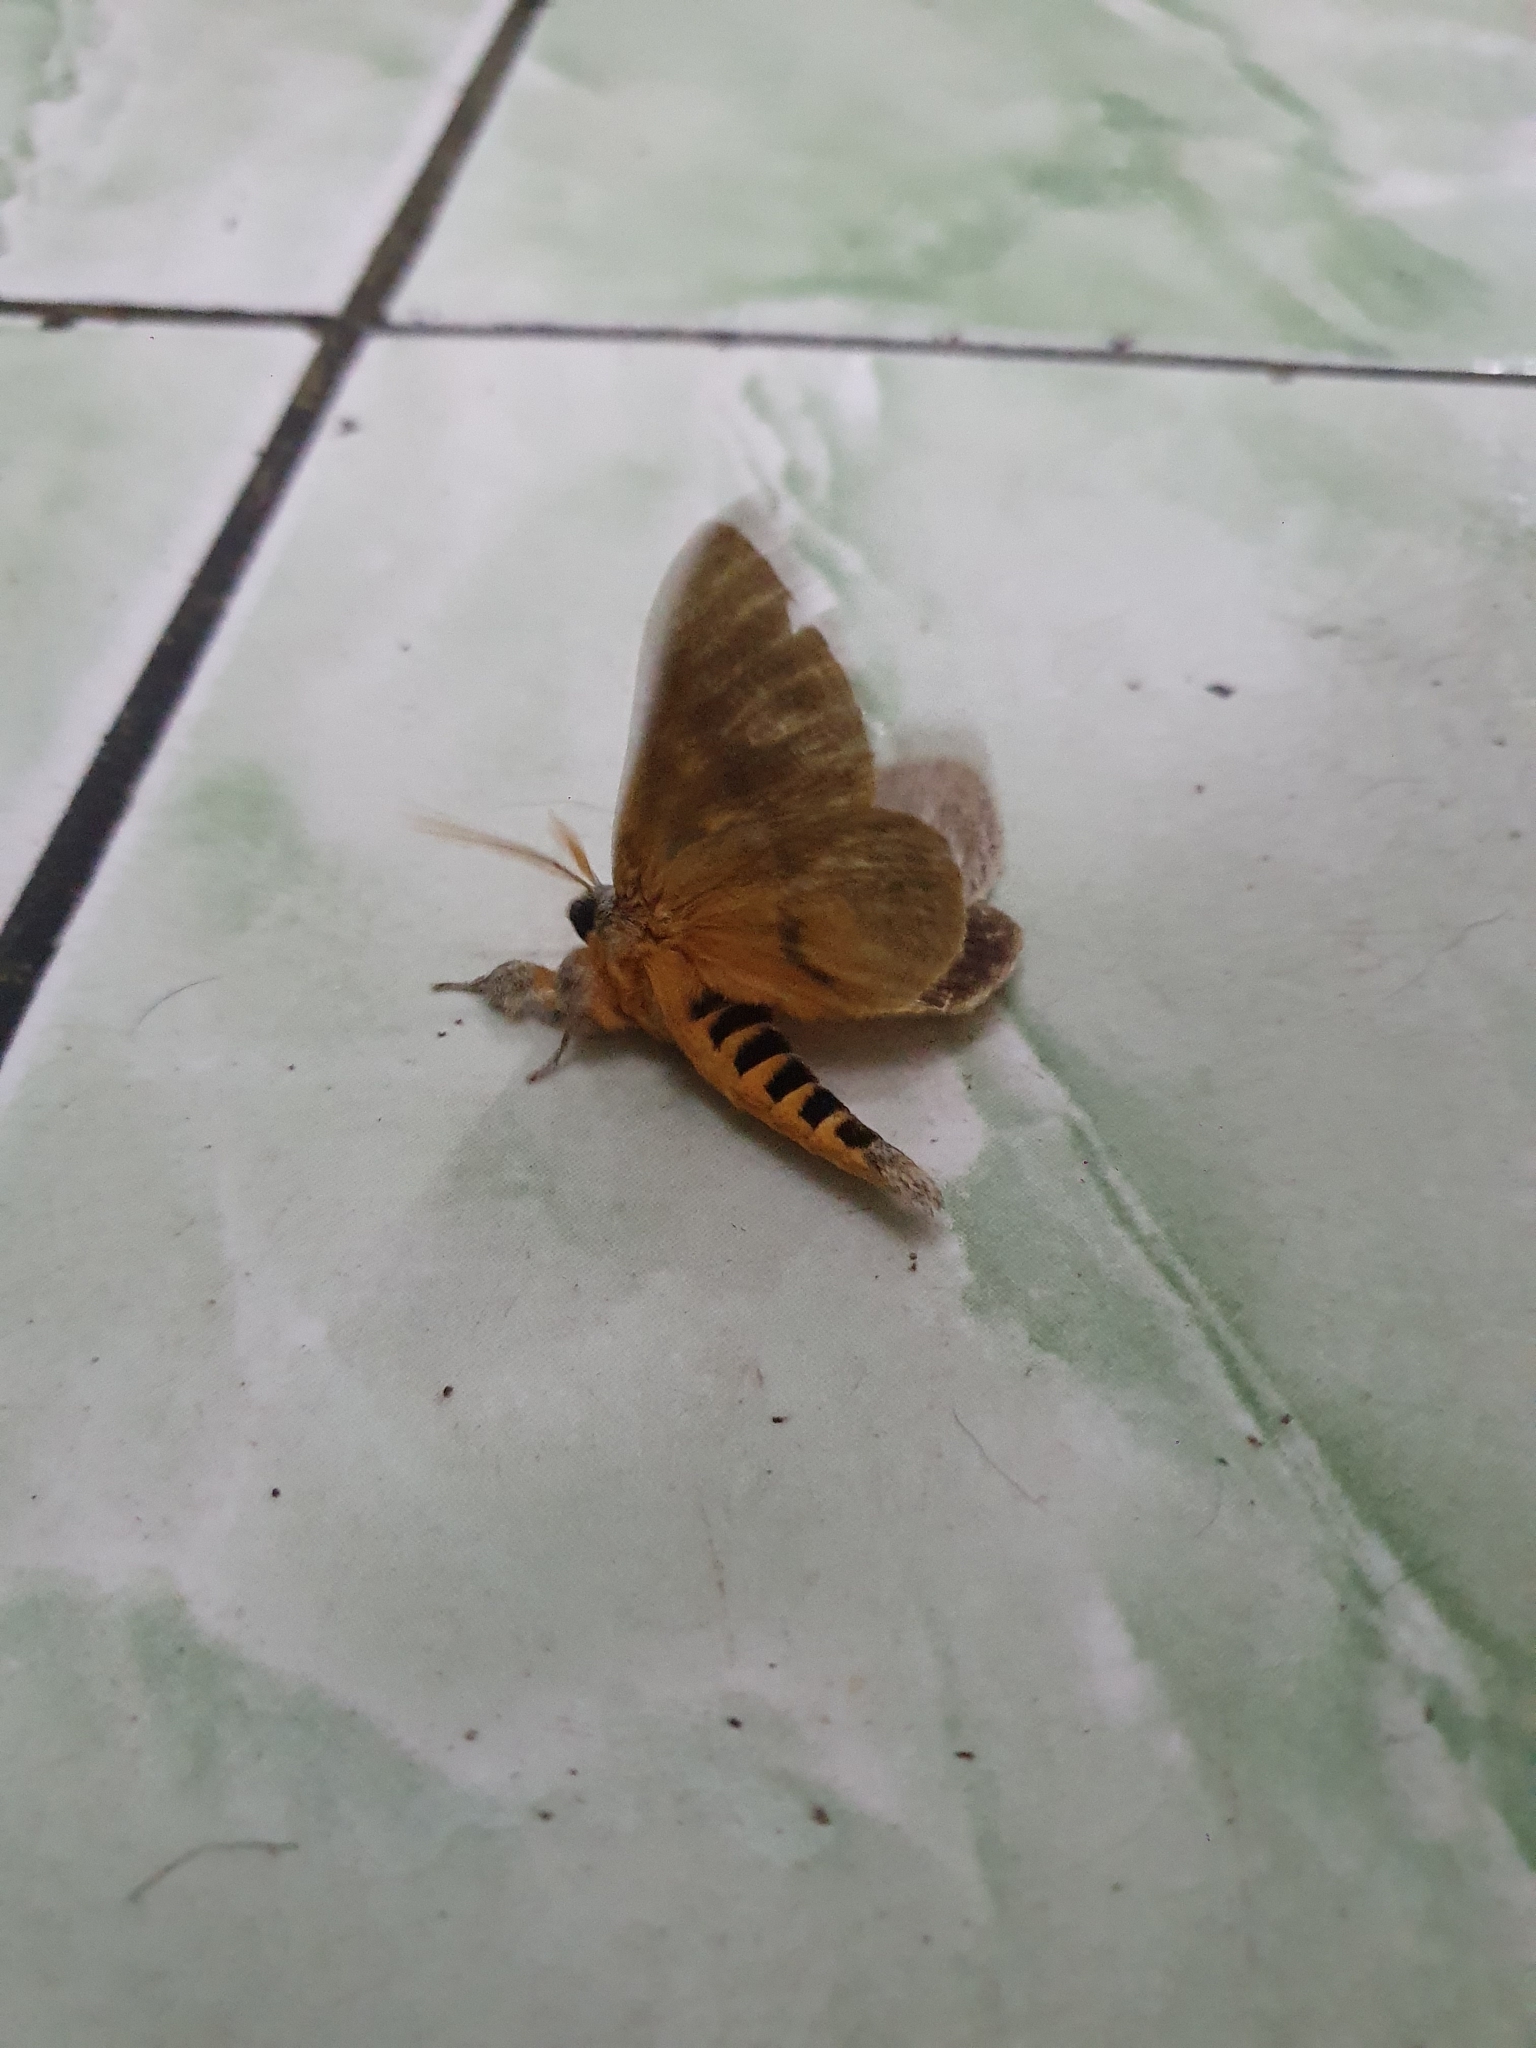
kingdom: Animalia
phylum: Arthropoda
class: Insecta
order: Lepidoptera
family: Notodontidae
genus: Anurocampa
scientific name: Anurocampa mingens
